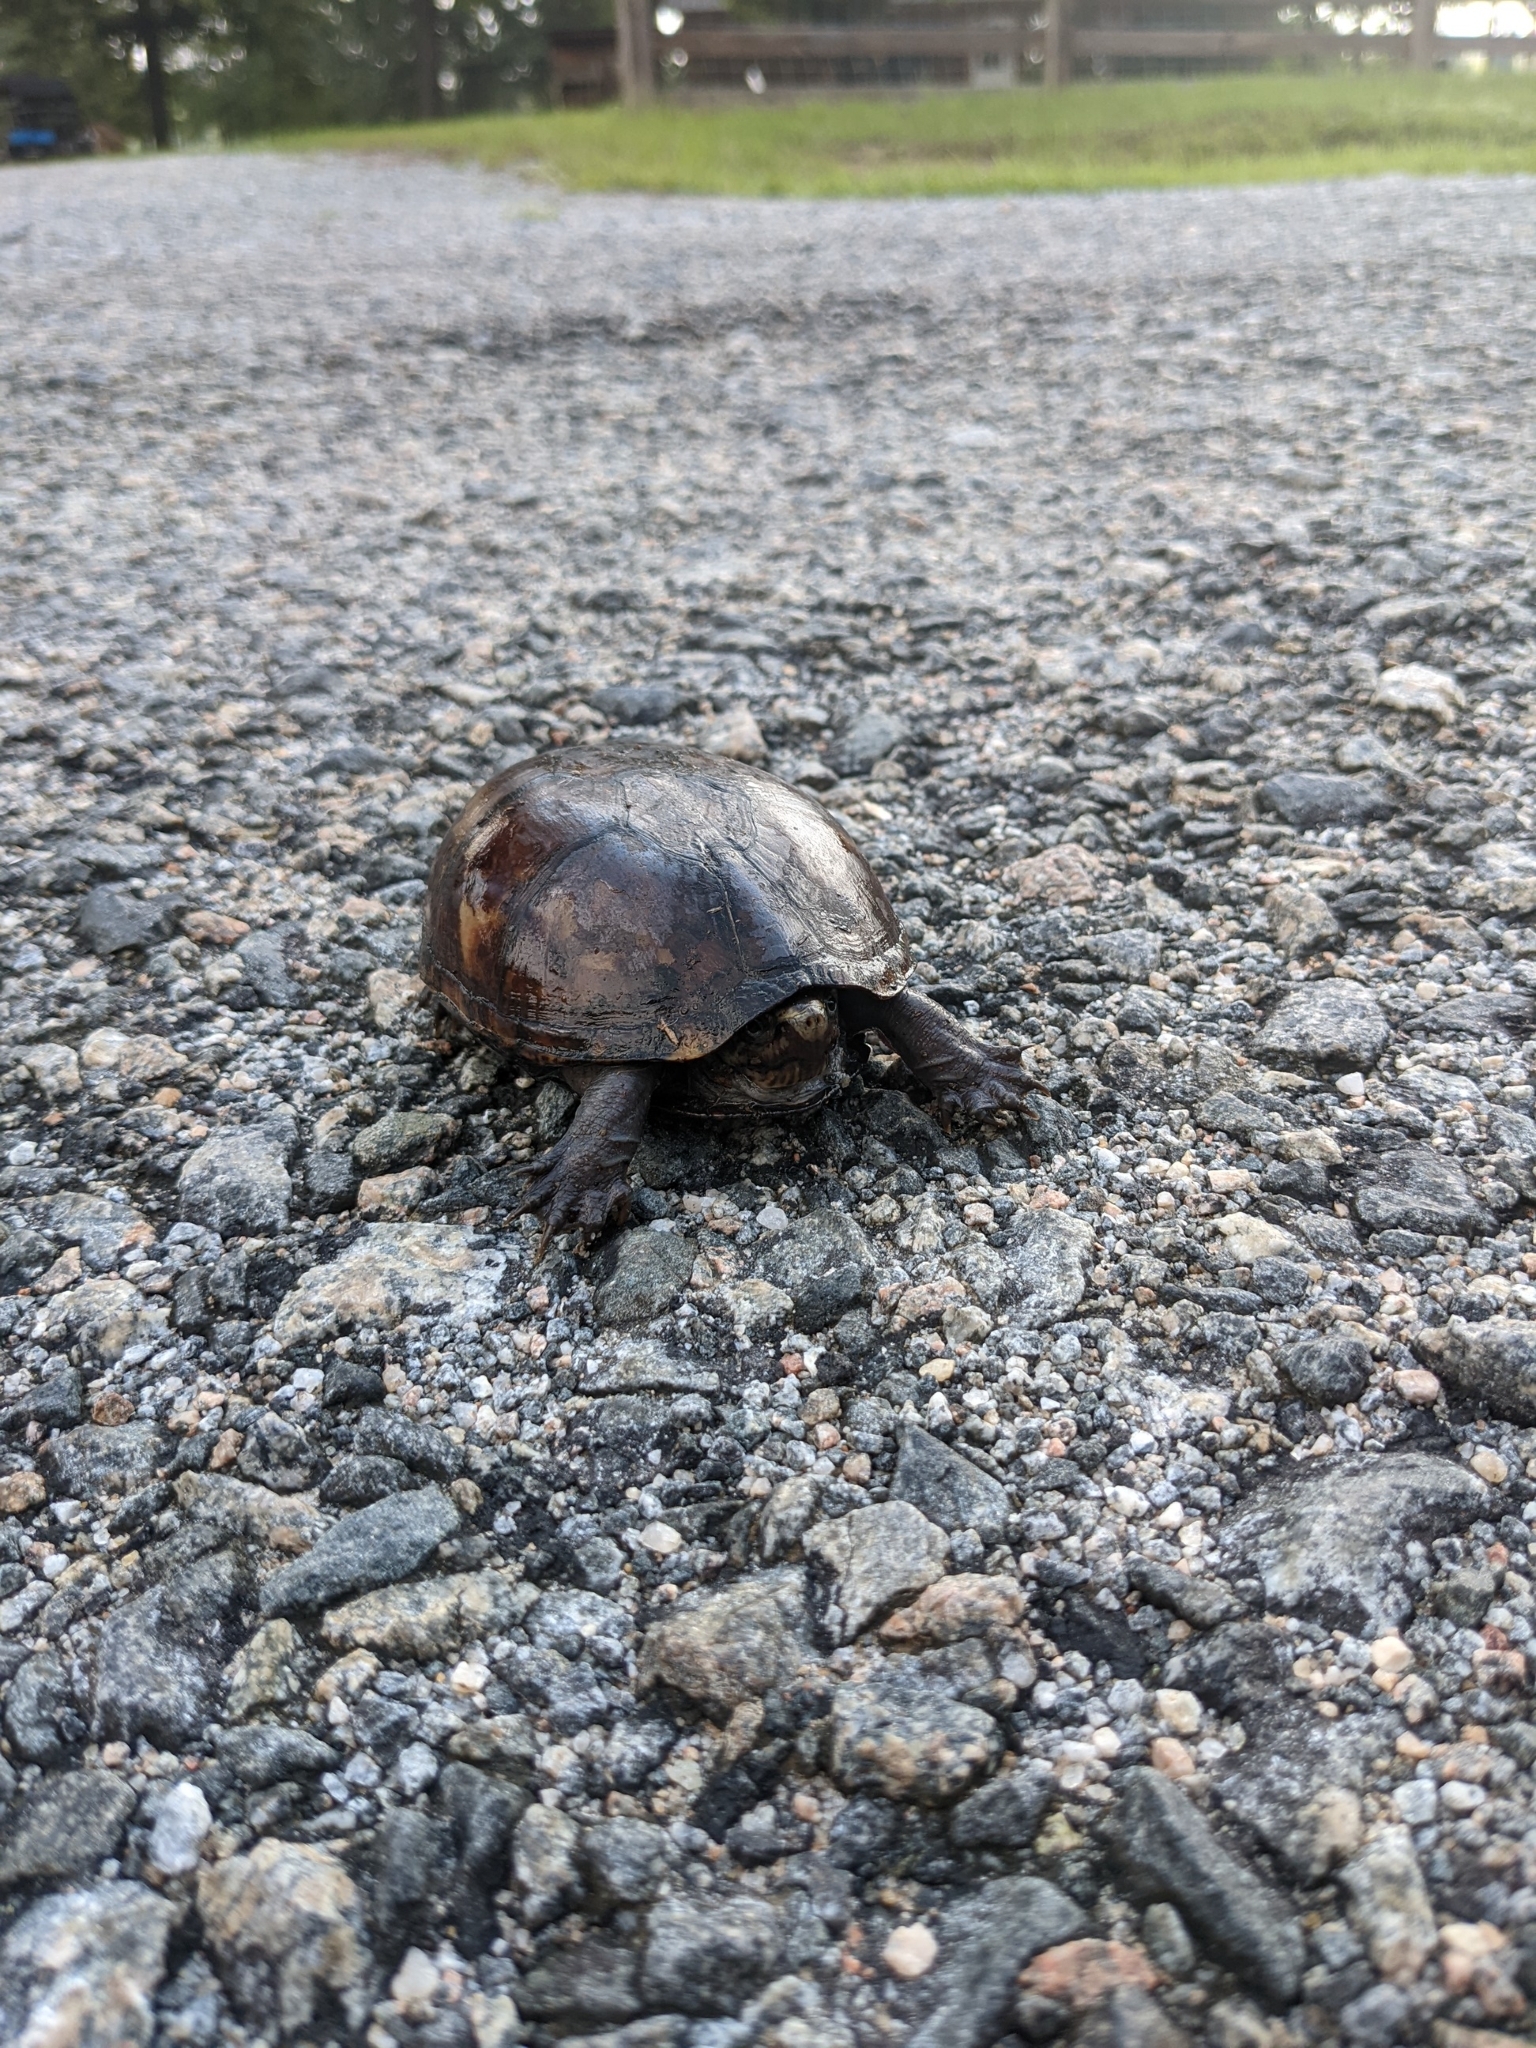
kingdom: Animalia
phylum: Chordata
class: Testudines
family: Kinosternidae
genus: Kinosternon
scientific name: Kinosternon subrubrum
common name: Eastern mud turtle
